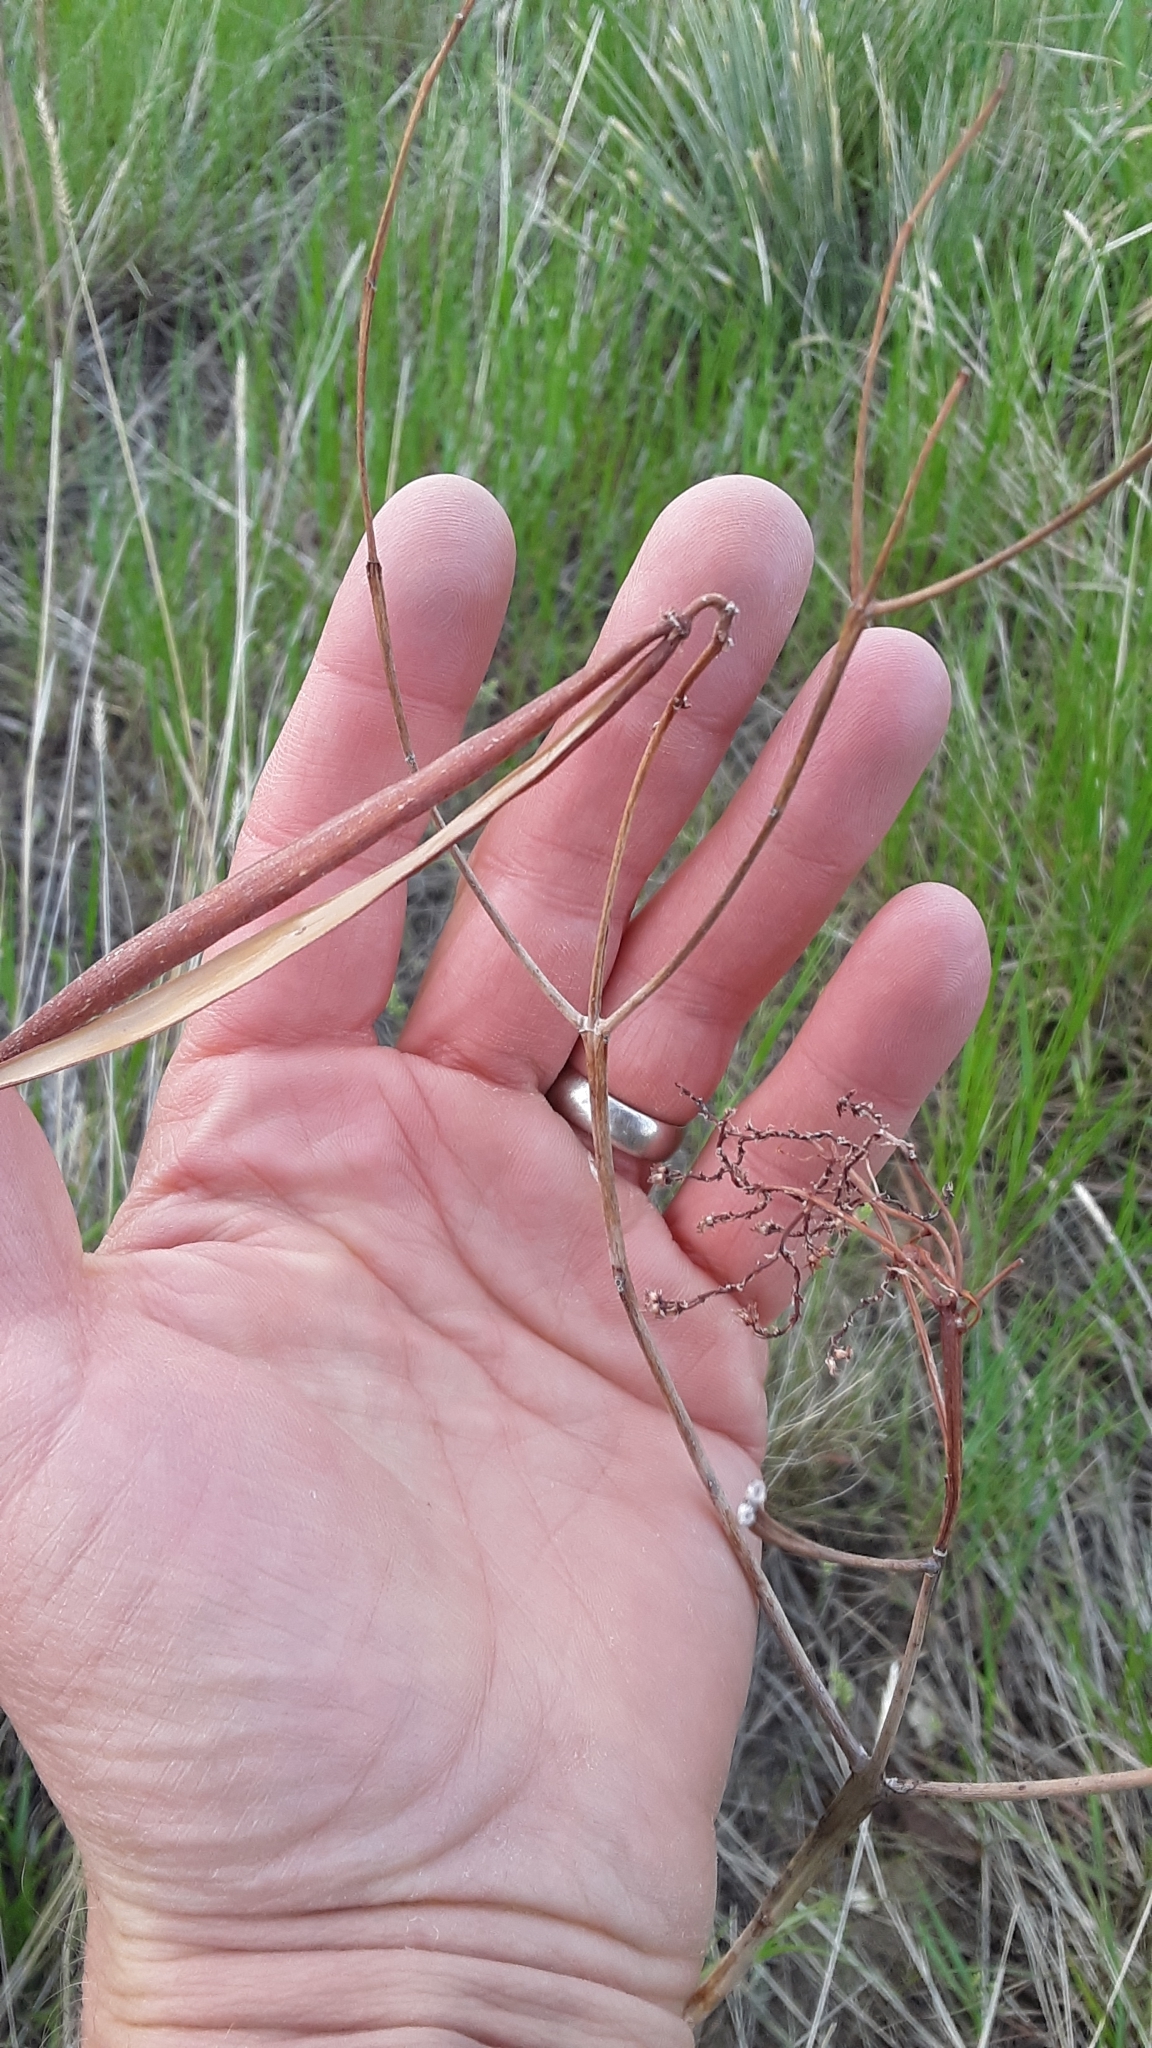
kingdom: Plantae
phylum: Tracheophyta
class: Magnoliopsida
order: Gentianales
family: Apocynaceae
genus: Apocynum
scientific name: Apocynum cannabinum
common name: Hemp dogbane
